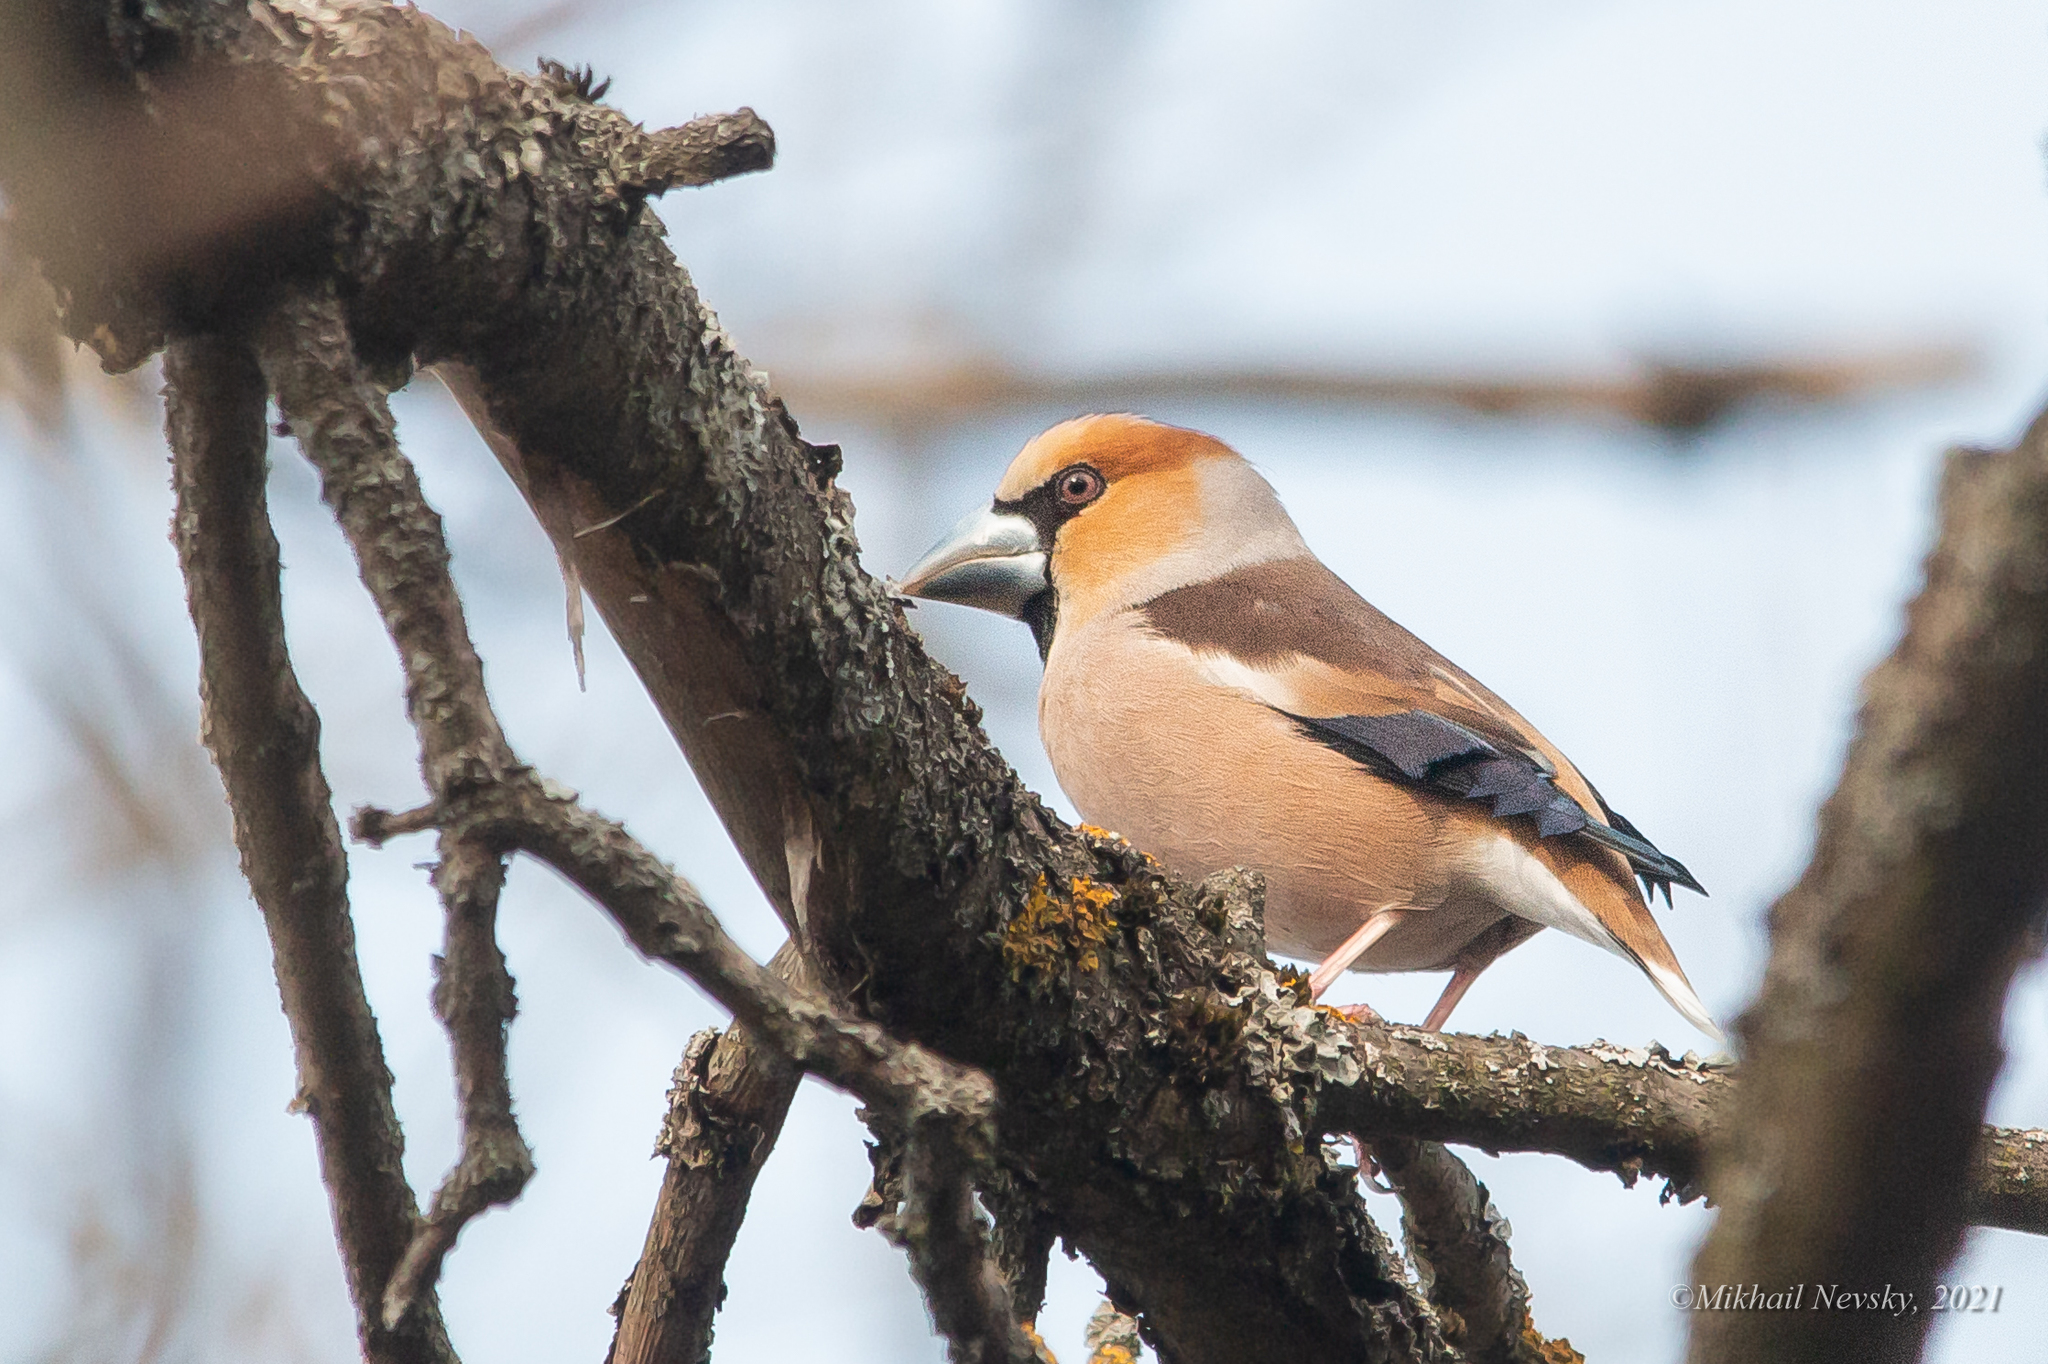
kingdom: Animalia
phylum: Chordata
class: Aves
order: Passeriformes
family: Fringillidae
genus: Coccothraustes
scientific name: Coccothraustes coccothraustes
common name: Hawfinch
